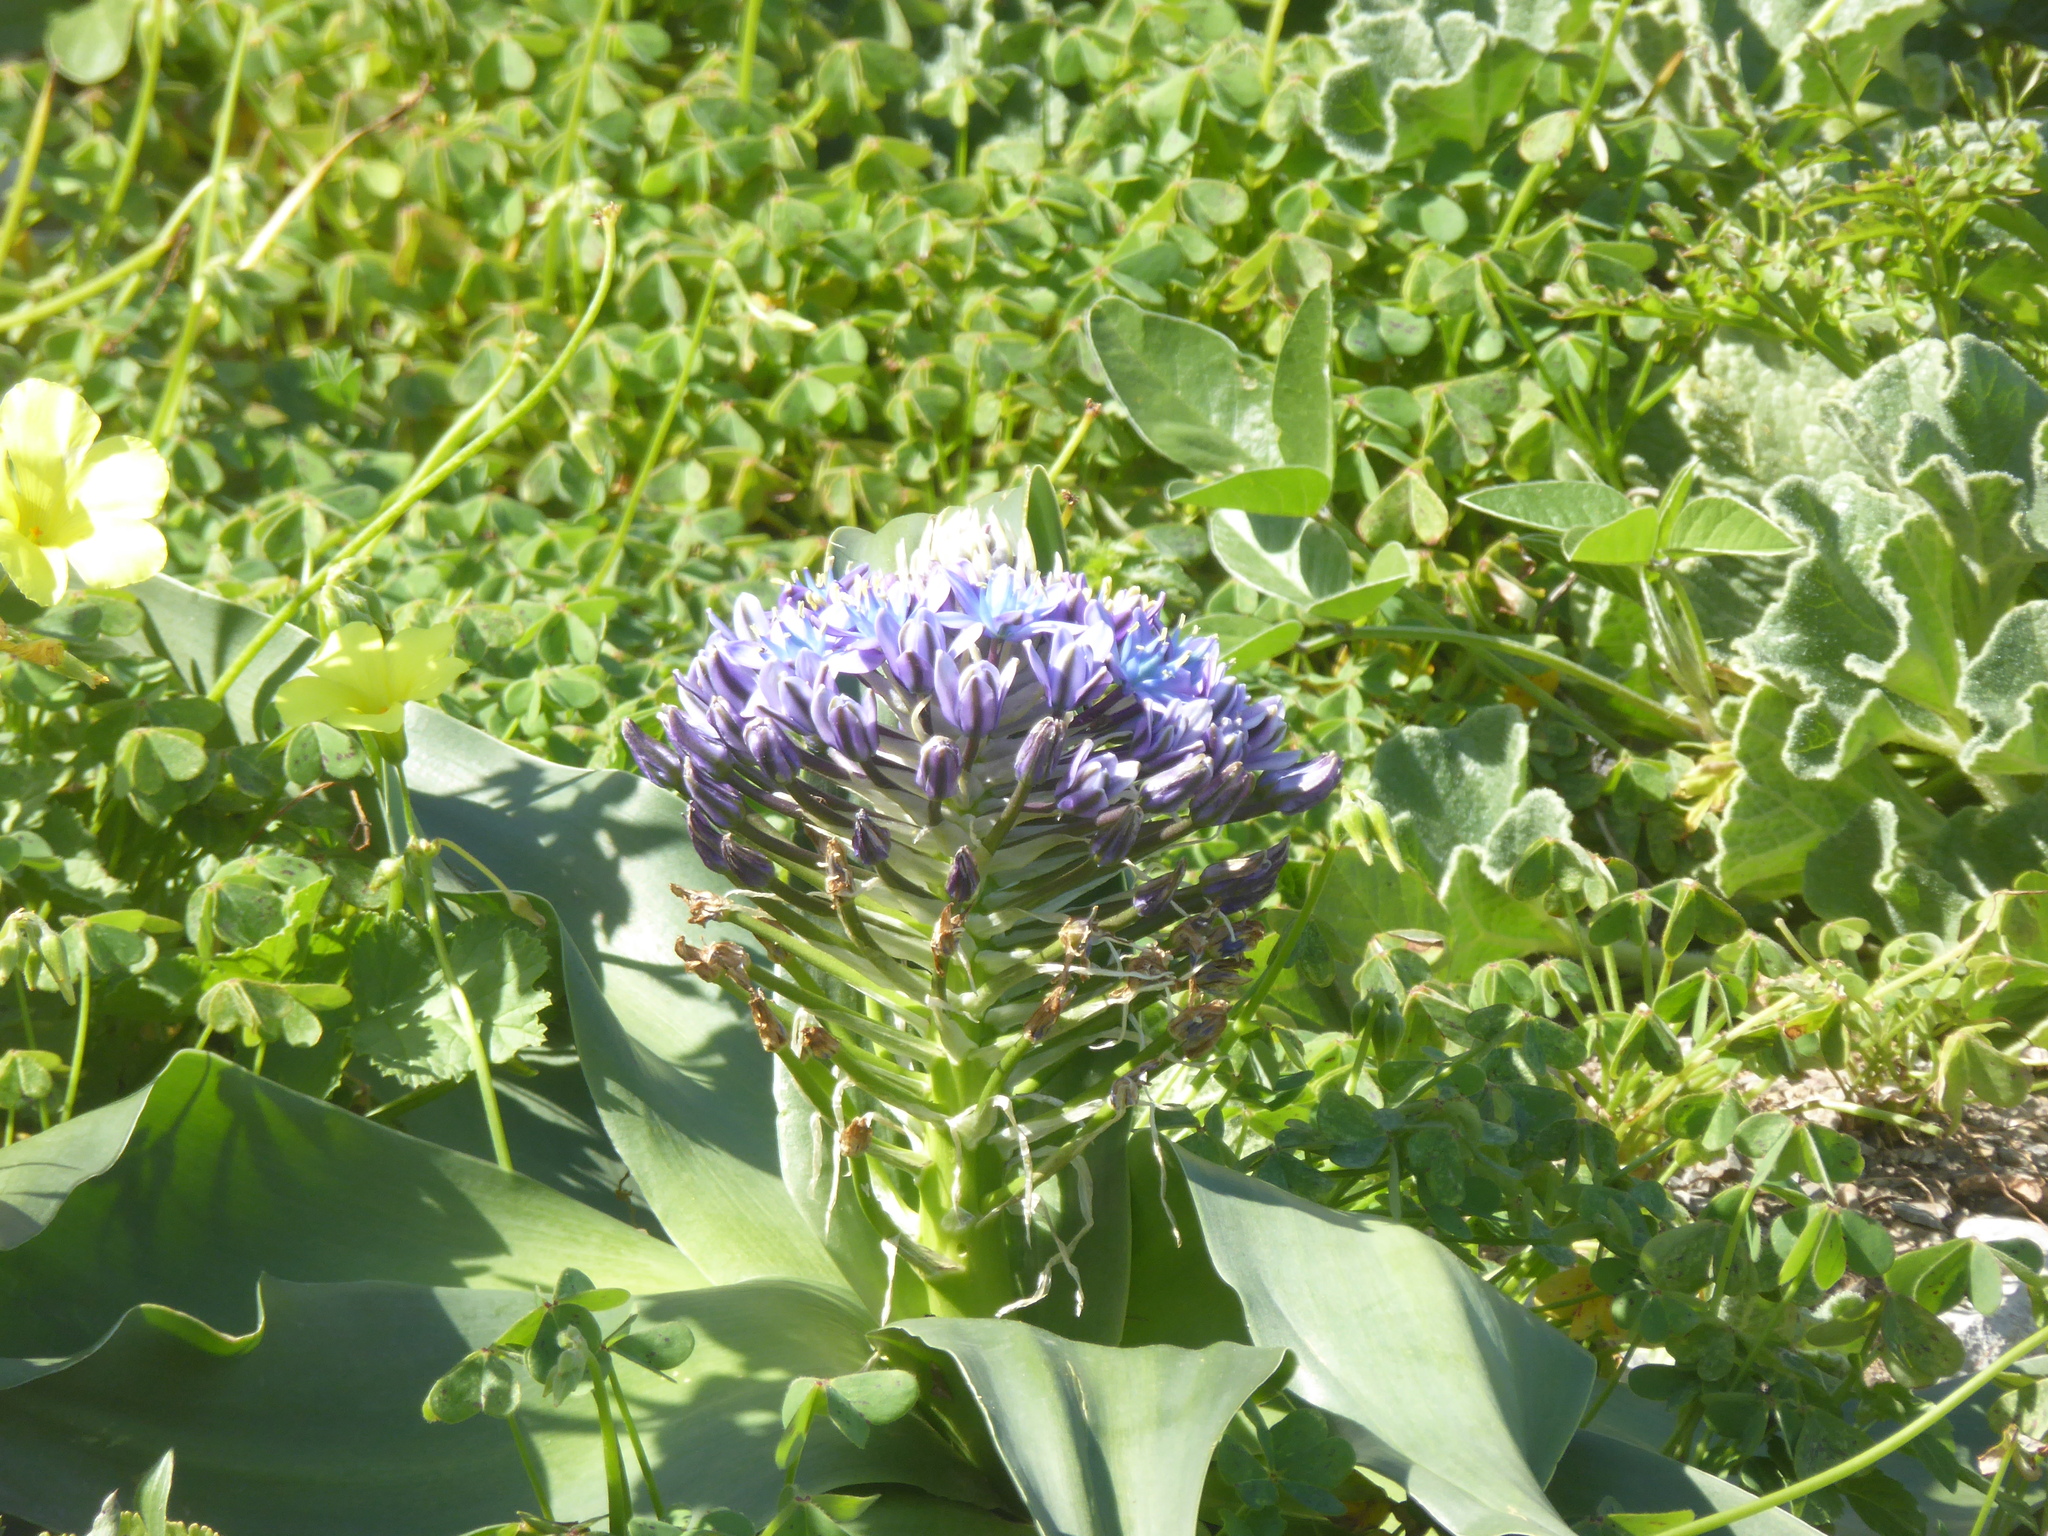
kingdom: Plantae
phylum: Tracheophyta
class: Liliopsida
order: Asparagales
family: Asparagaceae
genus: Scilla
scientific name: Scilla peruviana
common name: Portuguese squill
